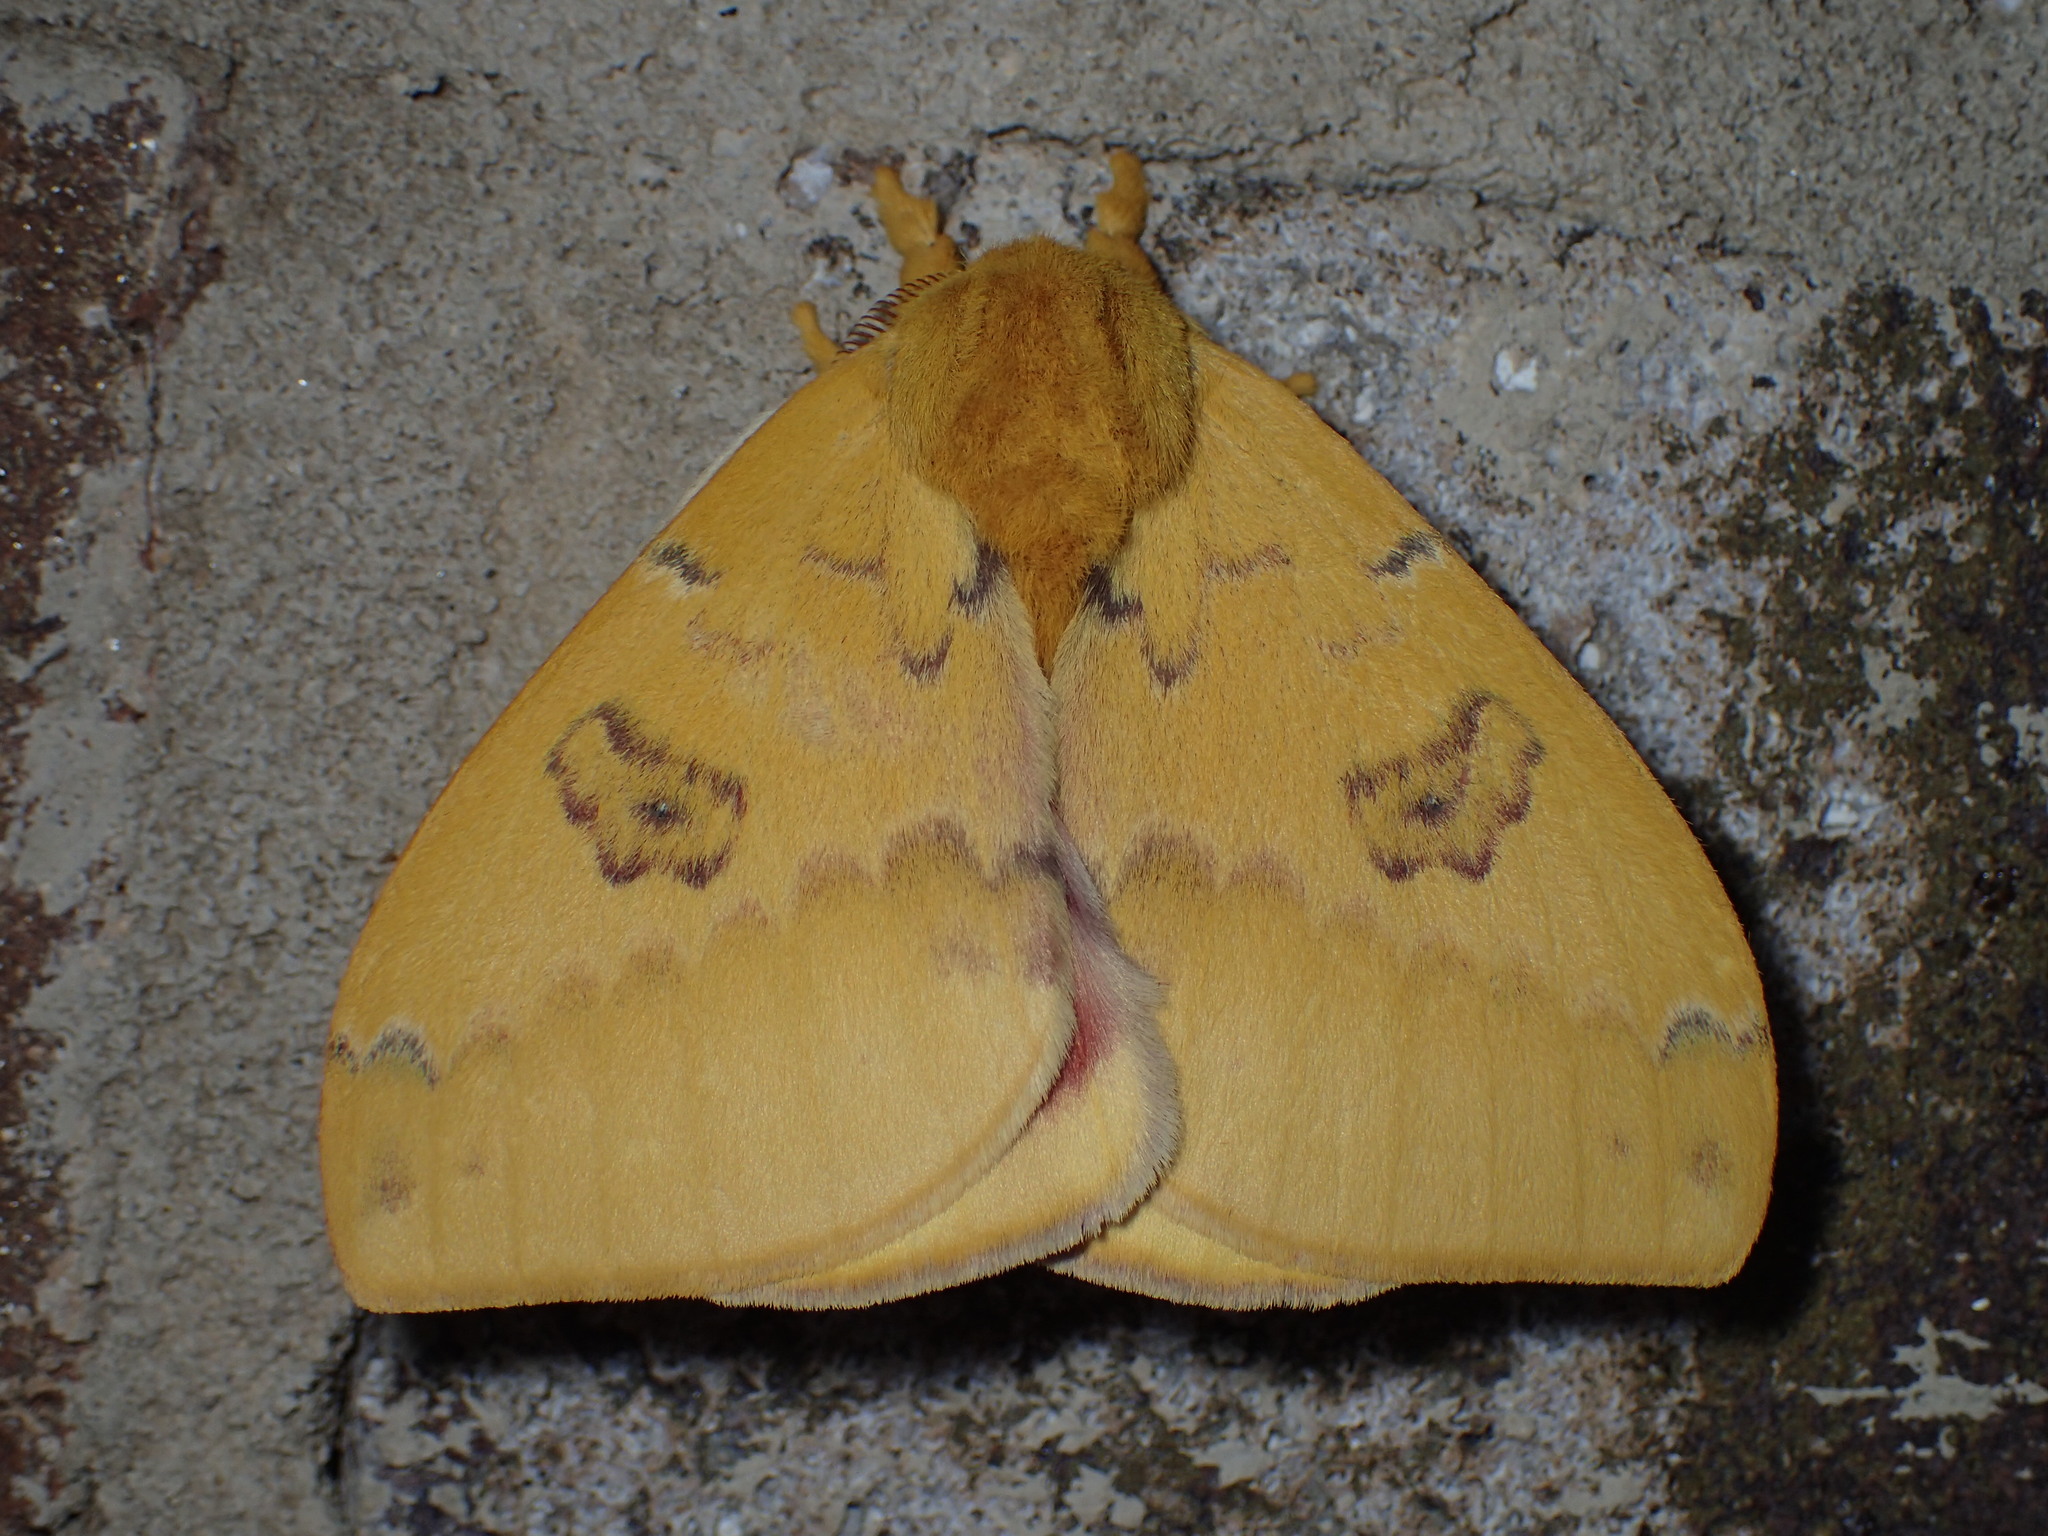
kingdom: Animalia
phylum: Arthropoda
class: Insecta
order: Lepidoptera
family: Saturniidae
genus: Automeris
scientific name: Automeris io
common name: Io moth
